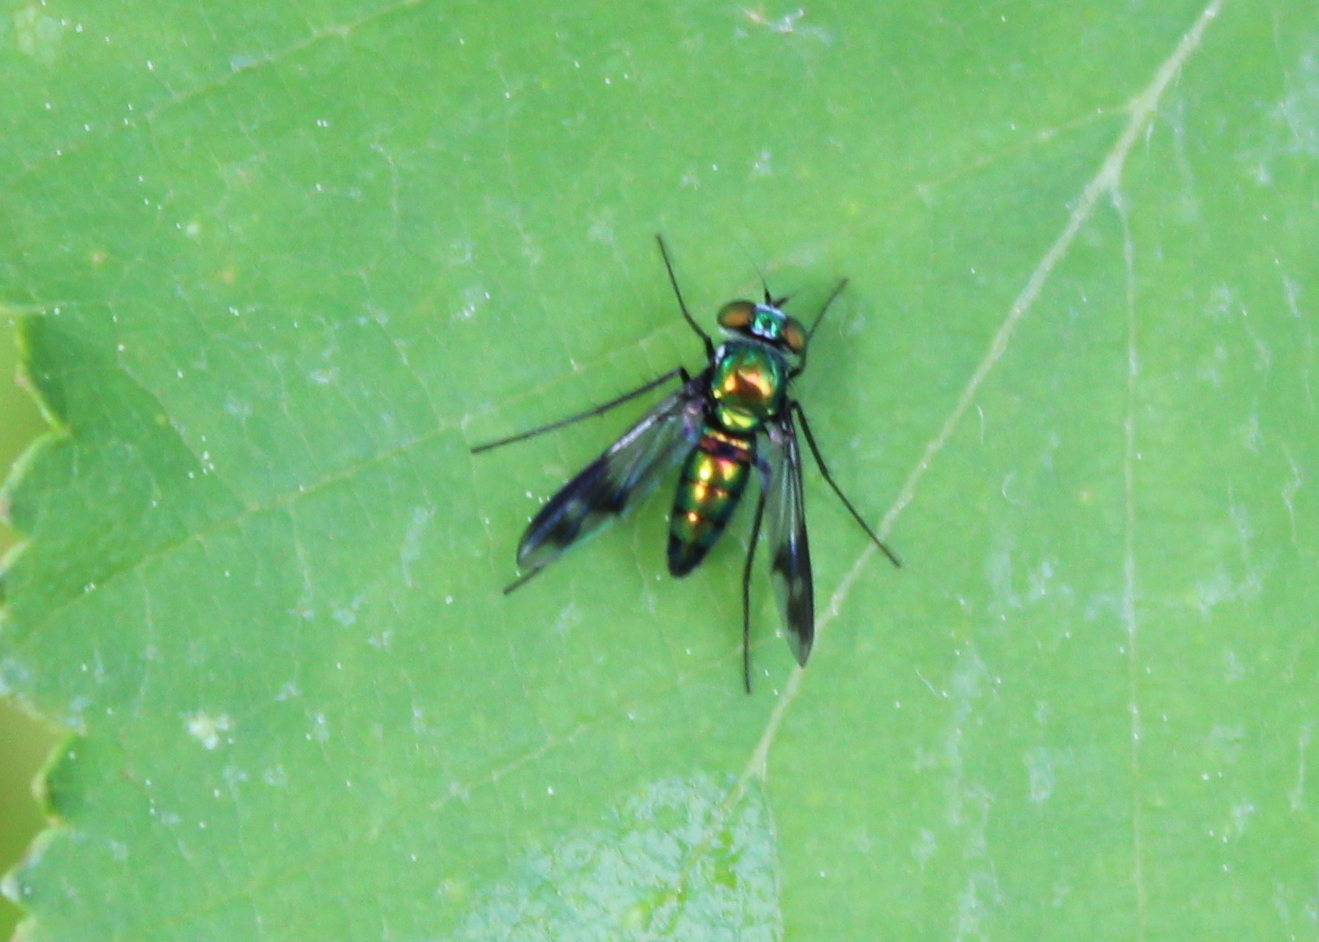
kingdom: Animalia
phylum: Arthropoda
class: Insecta
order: Diptera
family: Dolichopodidae
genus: Condylostylus
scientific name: Condylostylus patibulatus
